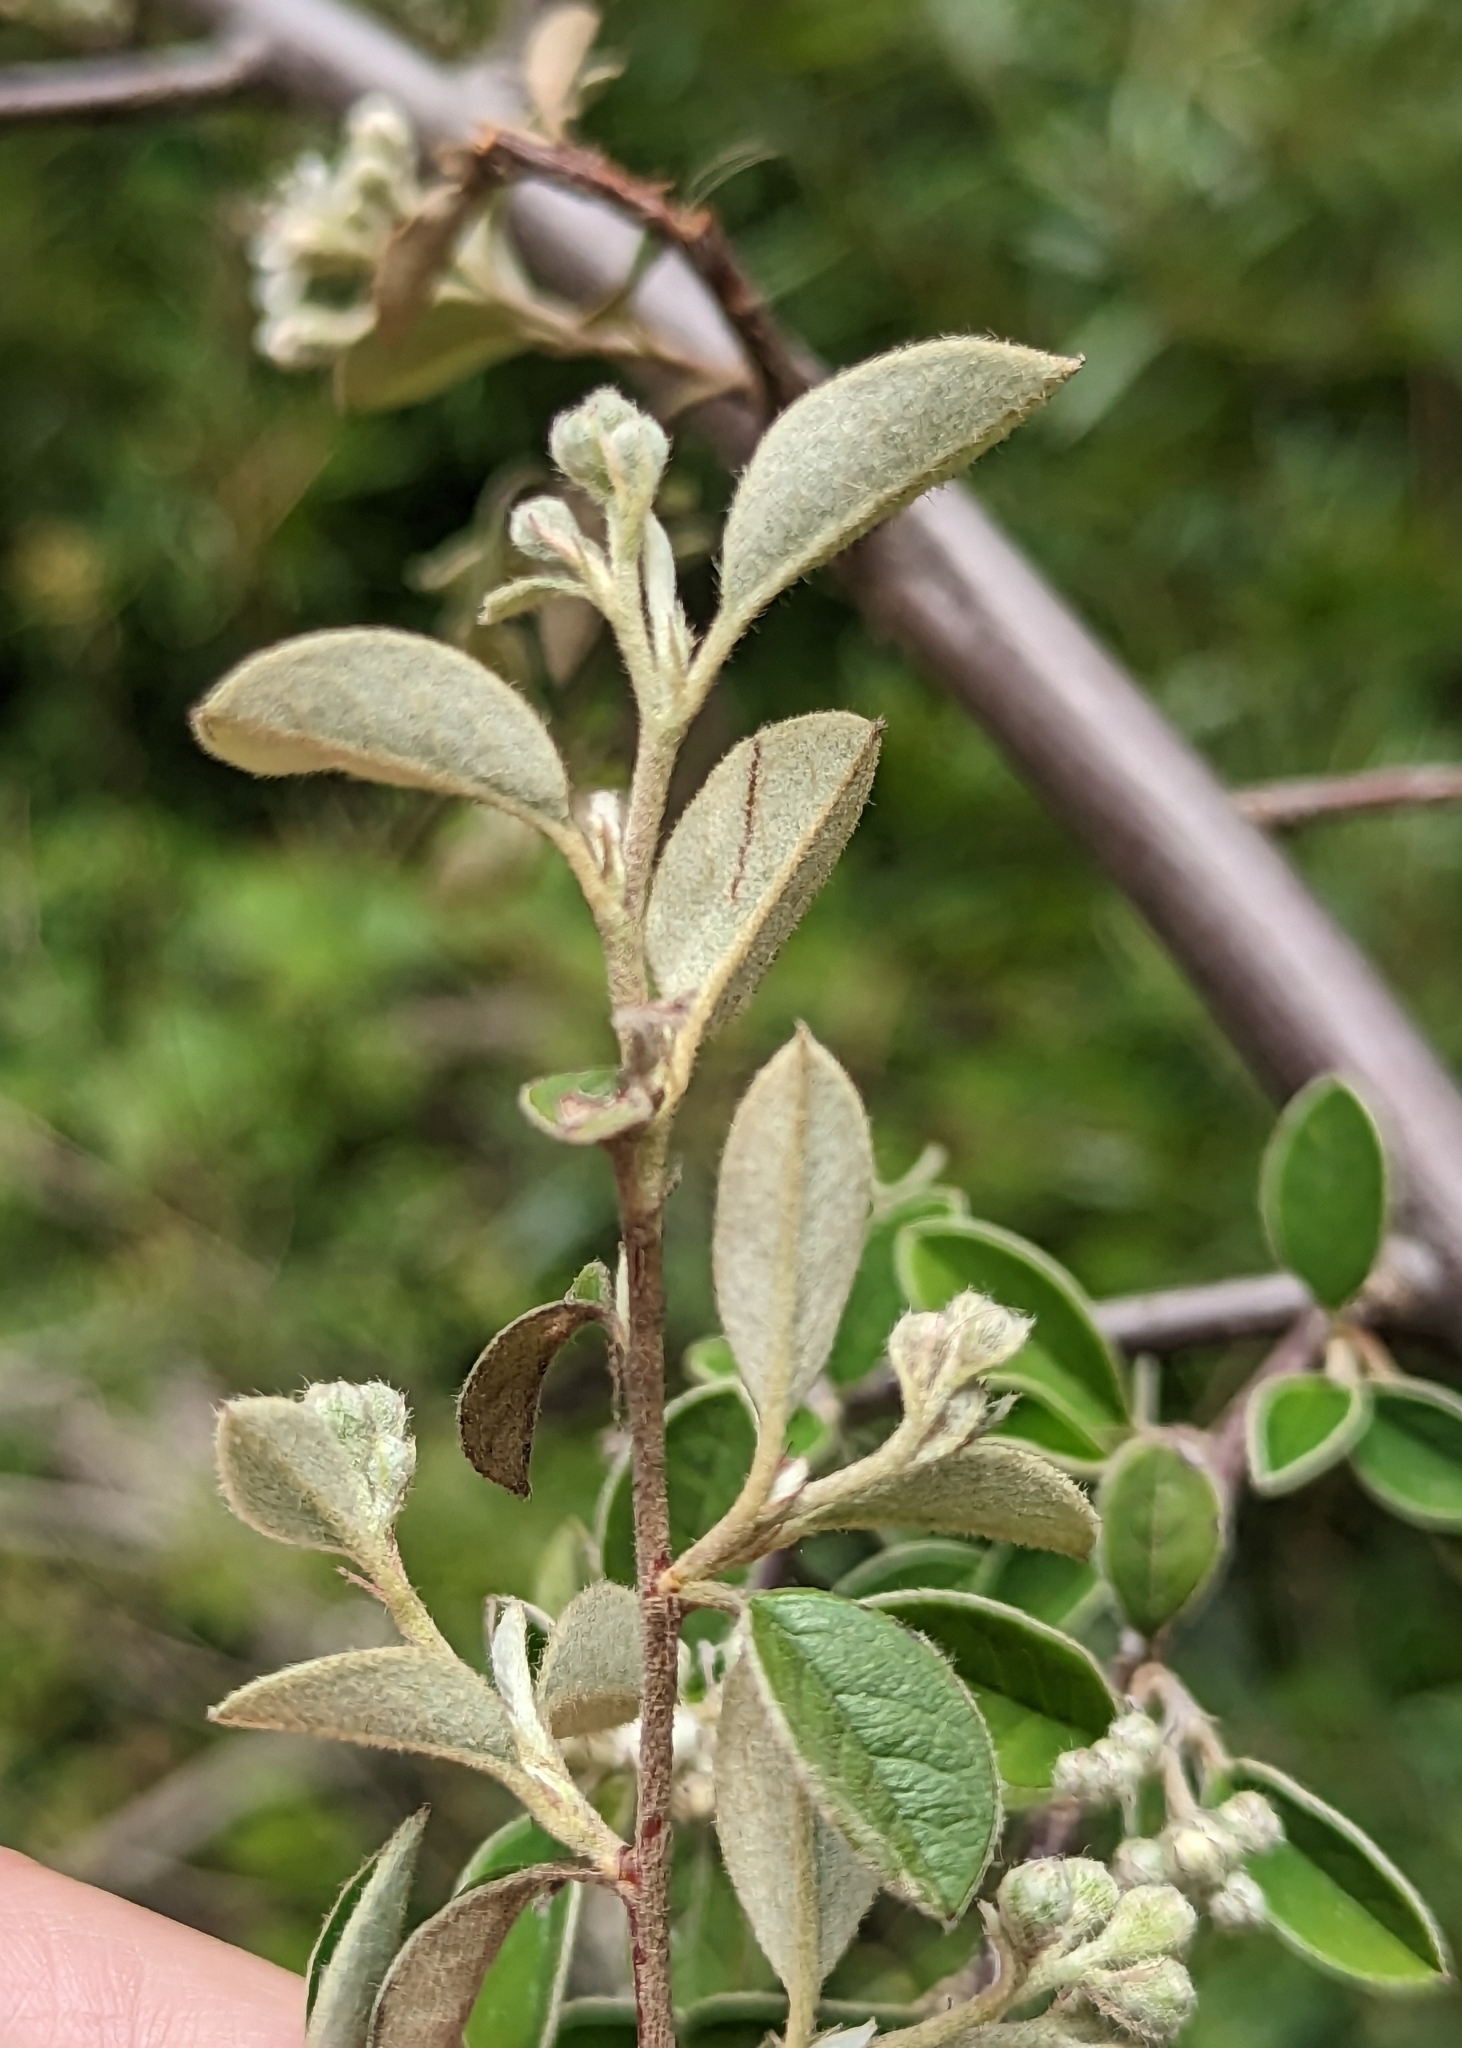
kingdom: Plantae
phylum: Tracheophyta
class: Magnoliopsida
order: Rosales
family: Rosaceae
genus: Cotoneaster
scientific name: Cotoneaster pannosus
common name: Silverleaf cotoneaster
